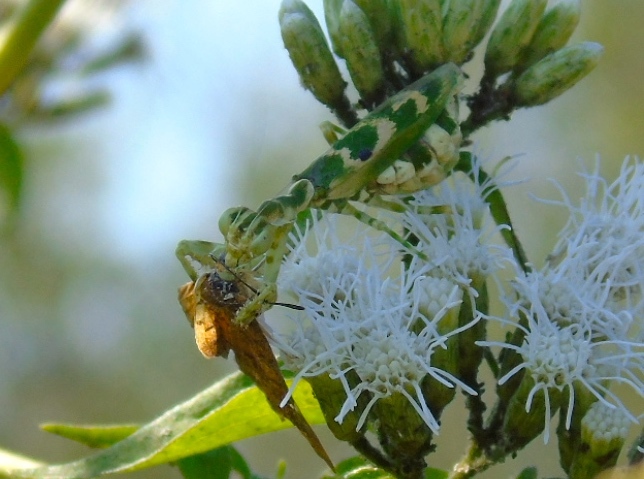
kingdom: Animalia
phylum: Arthropoda
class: Insecta
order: Mantodea
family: Acanthopidae
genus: Acontista
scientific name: Acontista mexicana
